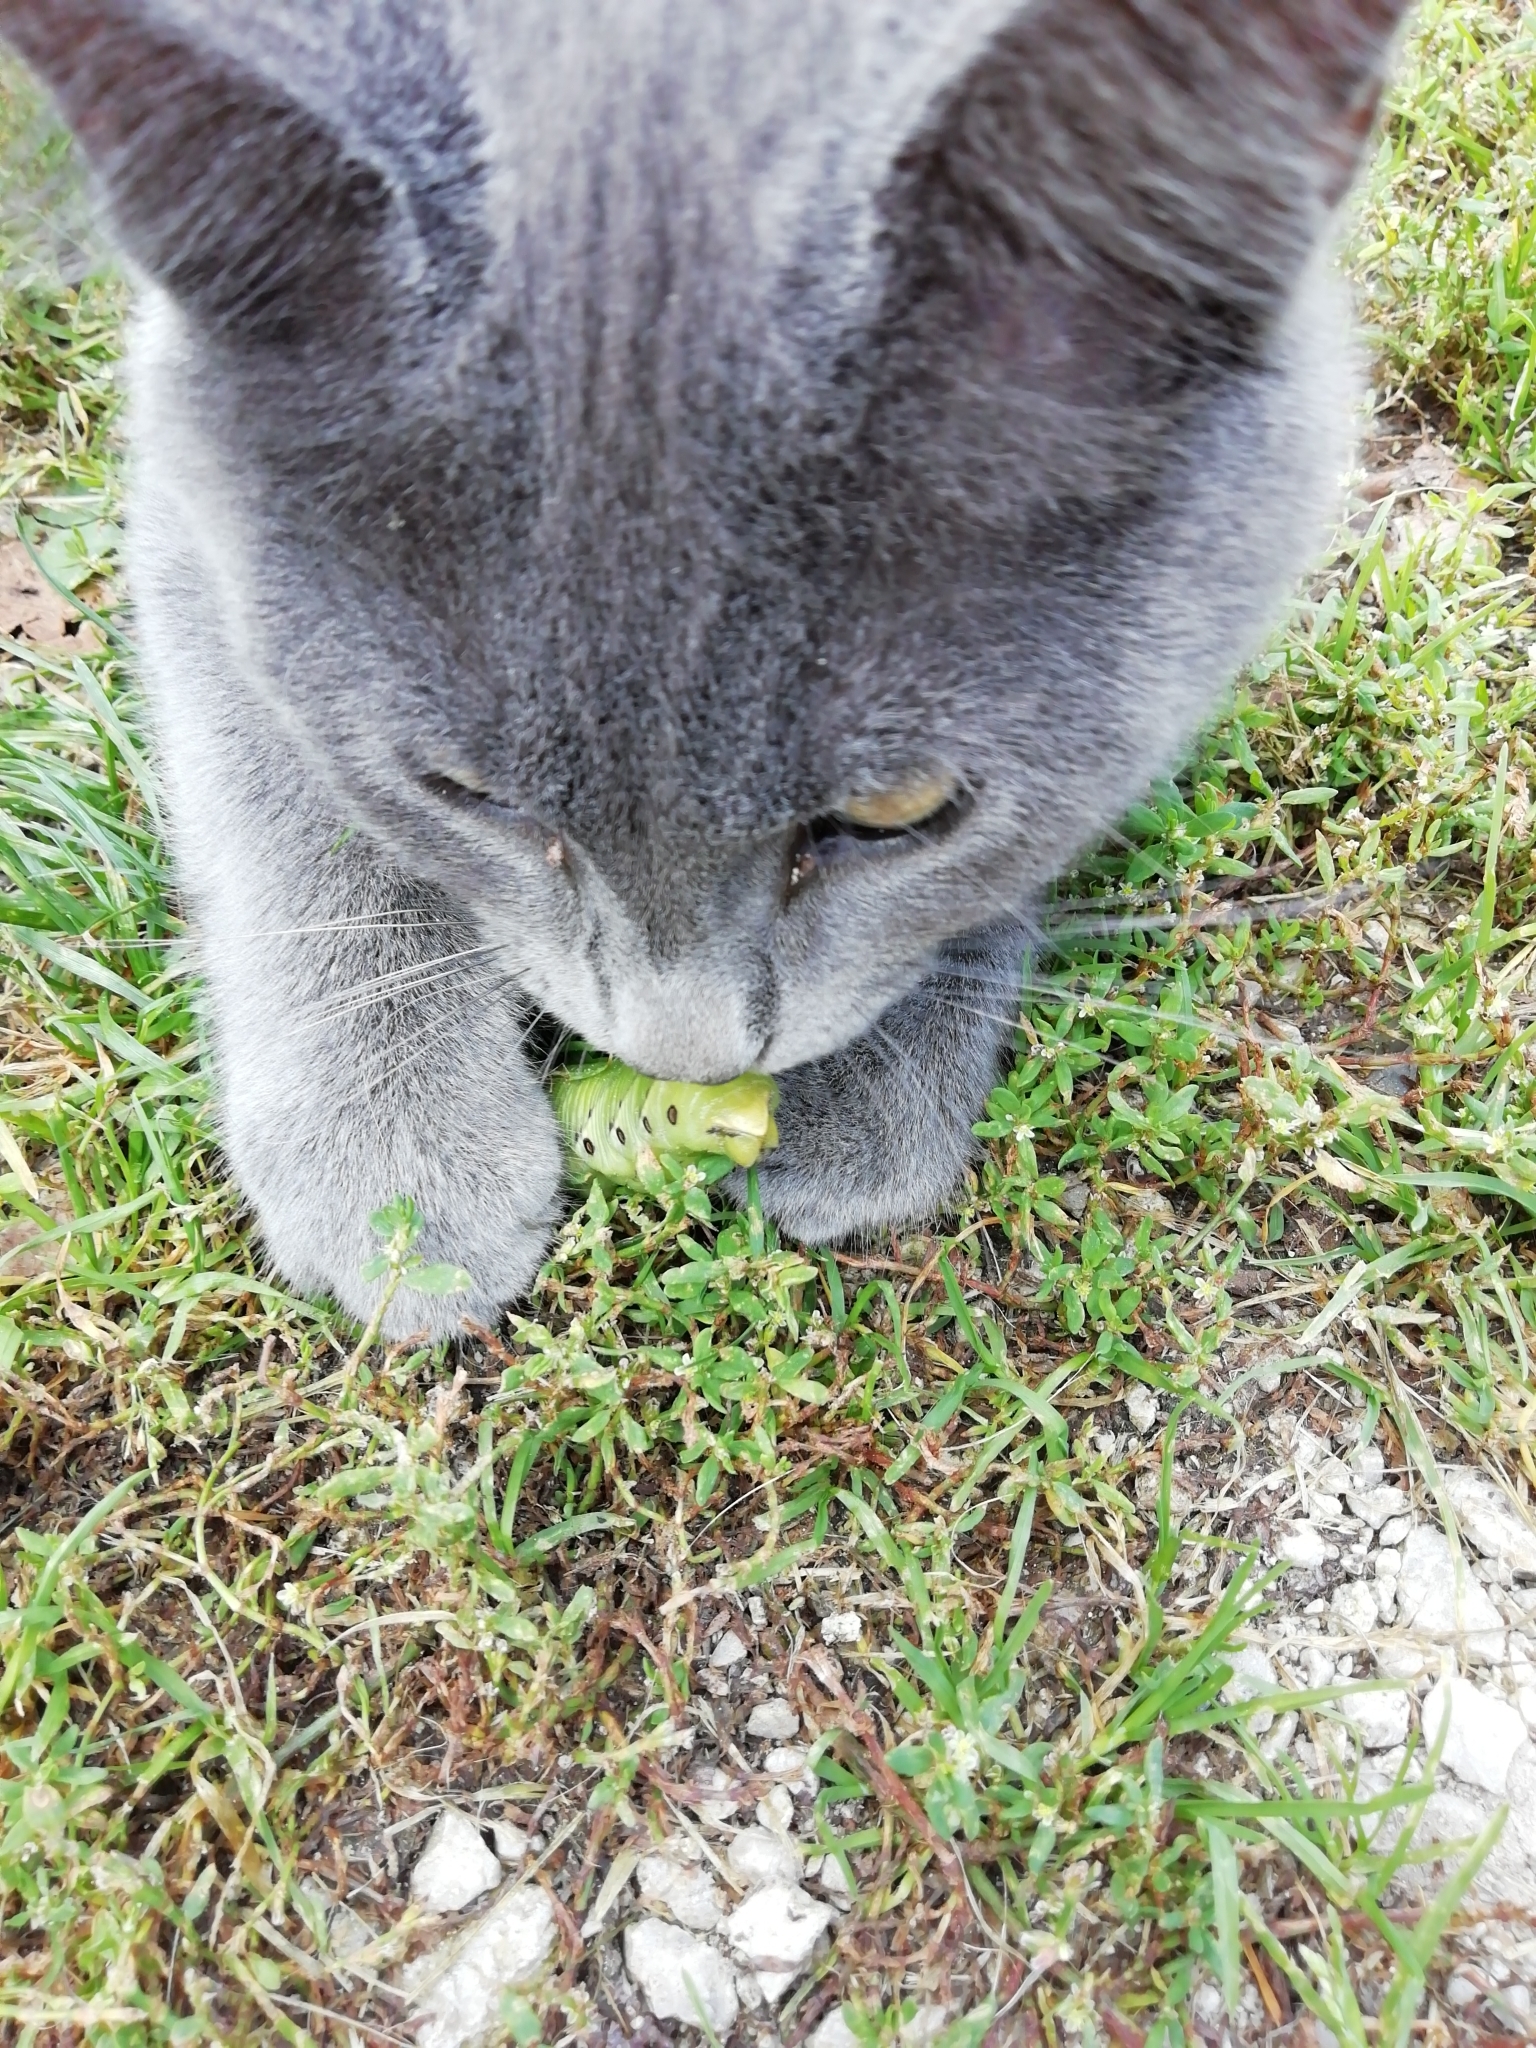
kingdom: Animalia
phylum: Arthropoda
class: Insecta
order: Lepidoptera
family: Sphingidae
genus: Agrius
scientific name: Agrius convolvuli
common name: Convolvulus hawkmoth
